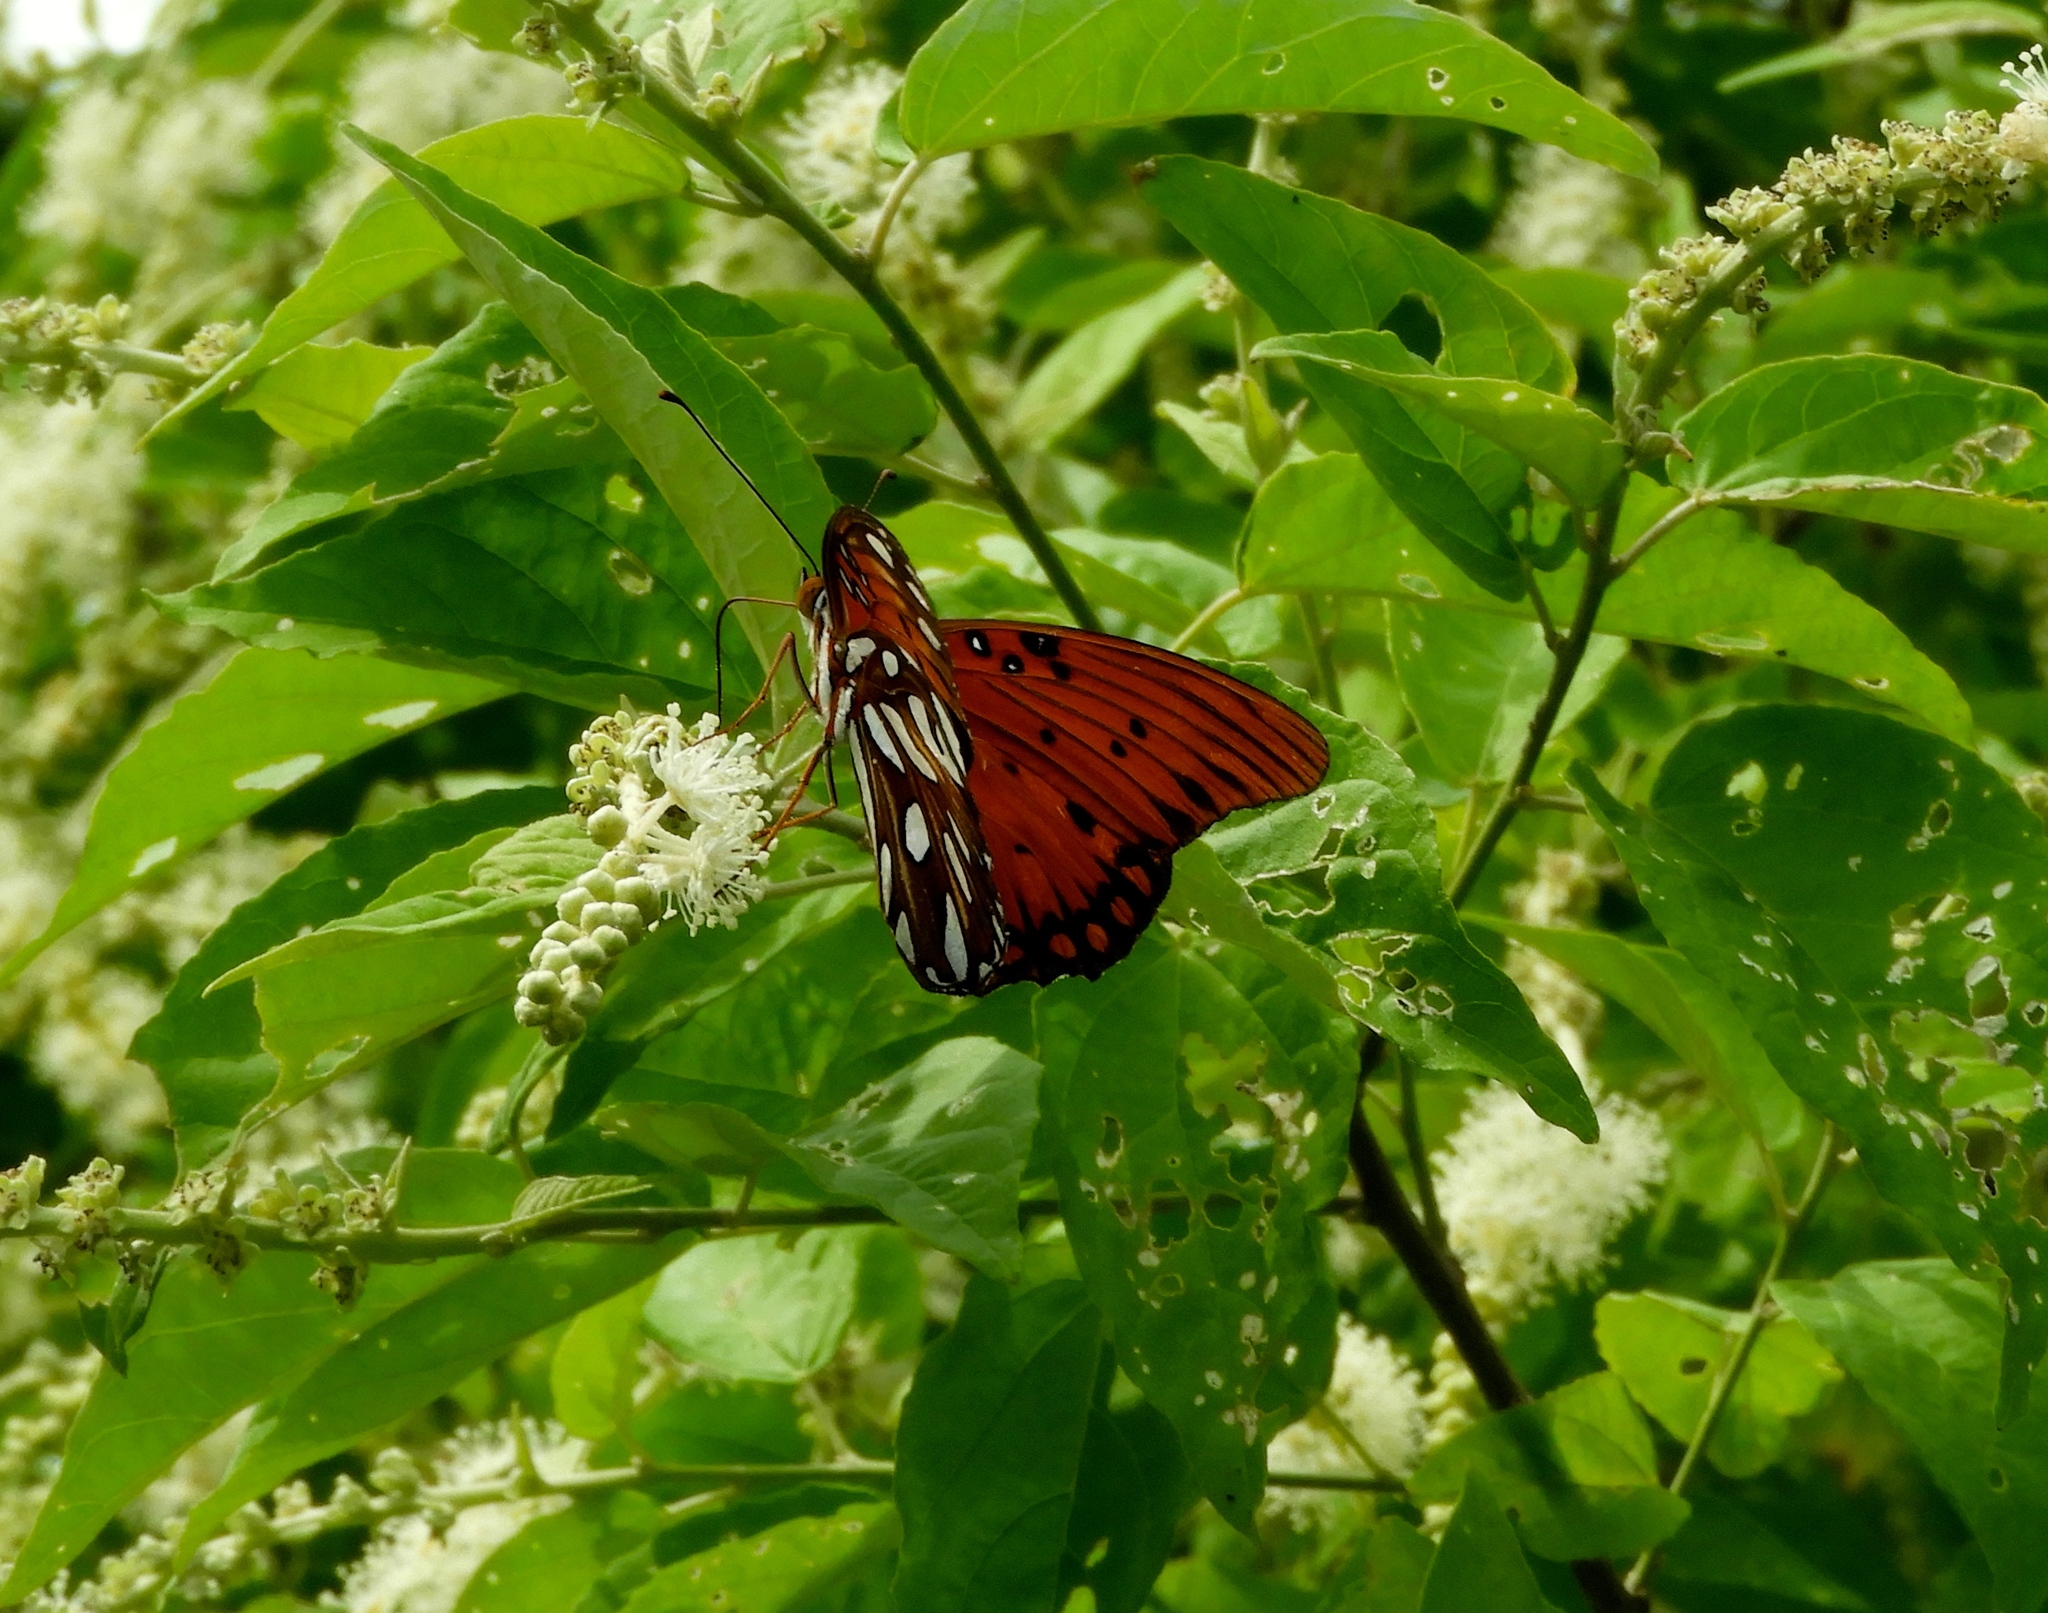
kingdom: Animalia
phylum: Arthropoda
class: Insecta
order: Lepidoptera
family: Nymphalidae
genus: Dione
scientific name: Dione vanillae
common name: Gulf fritillary
